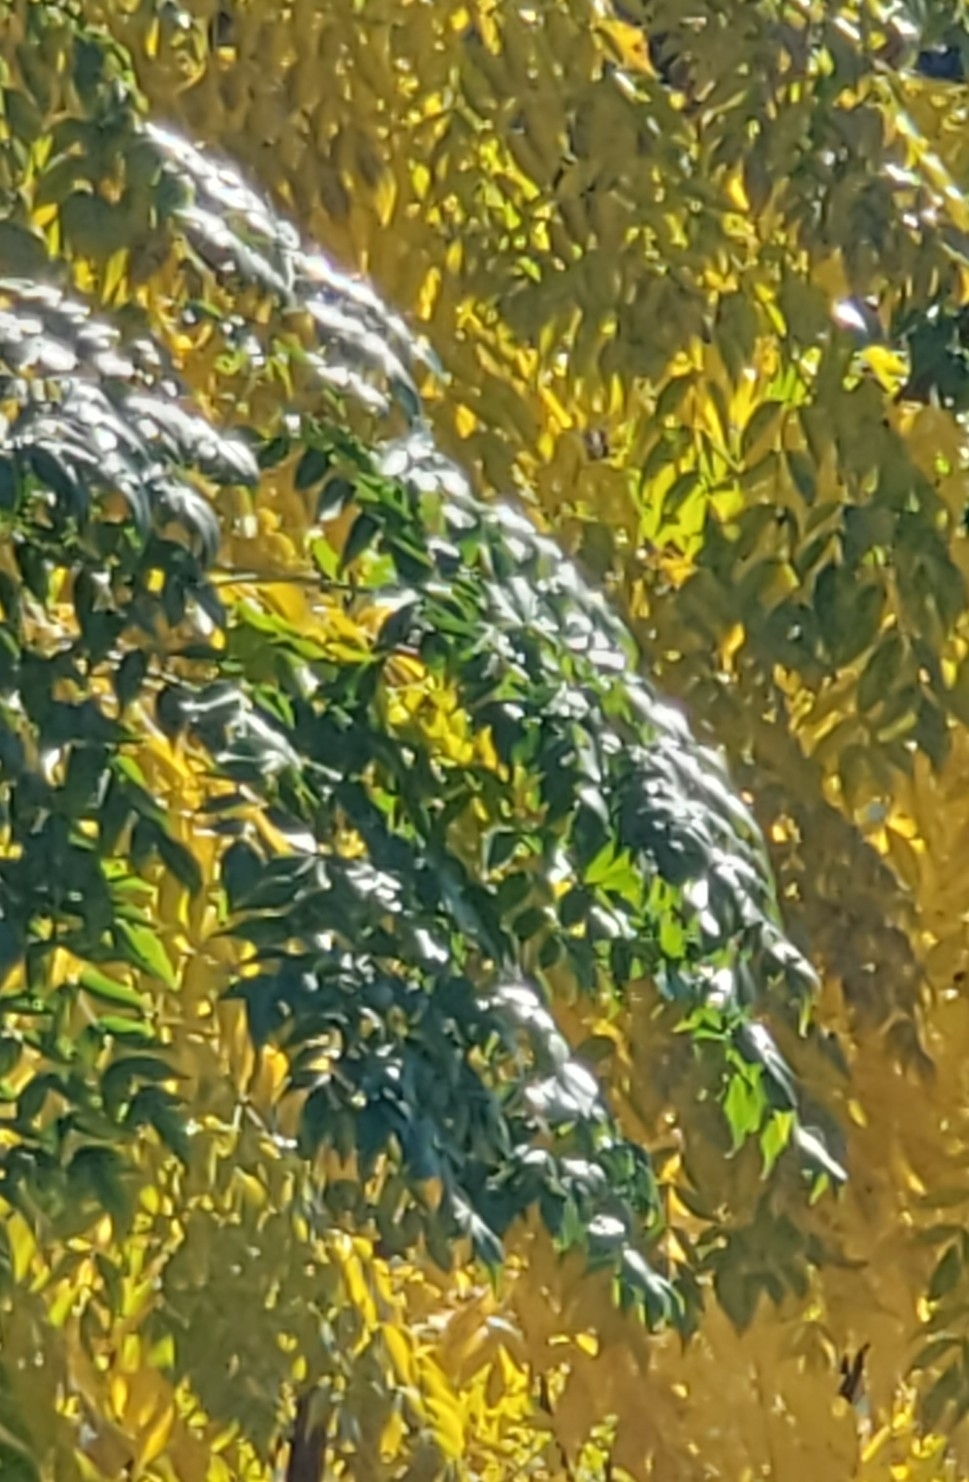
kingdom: Plantae
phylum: Tracheophyta
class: Magnoliopsida
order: Sapindales
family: Meliaceae
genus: Melia
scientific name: Melia azedarach
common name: Chinaberrytree
